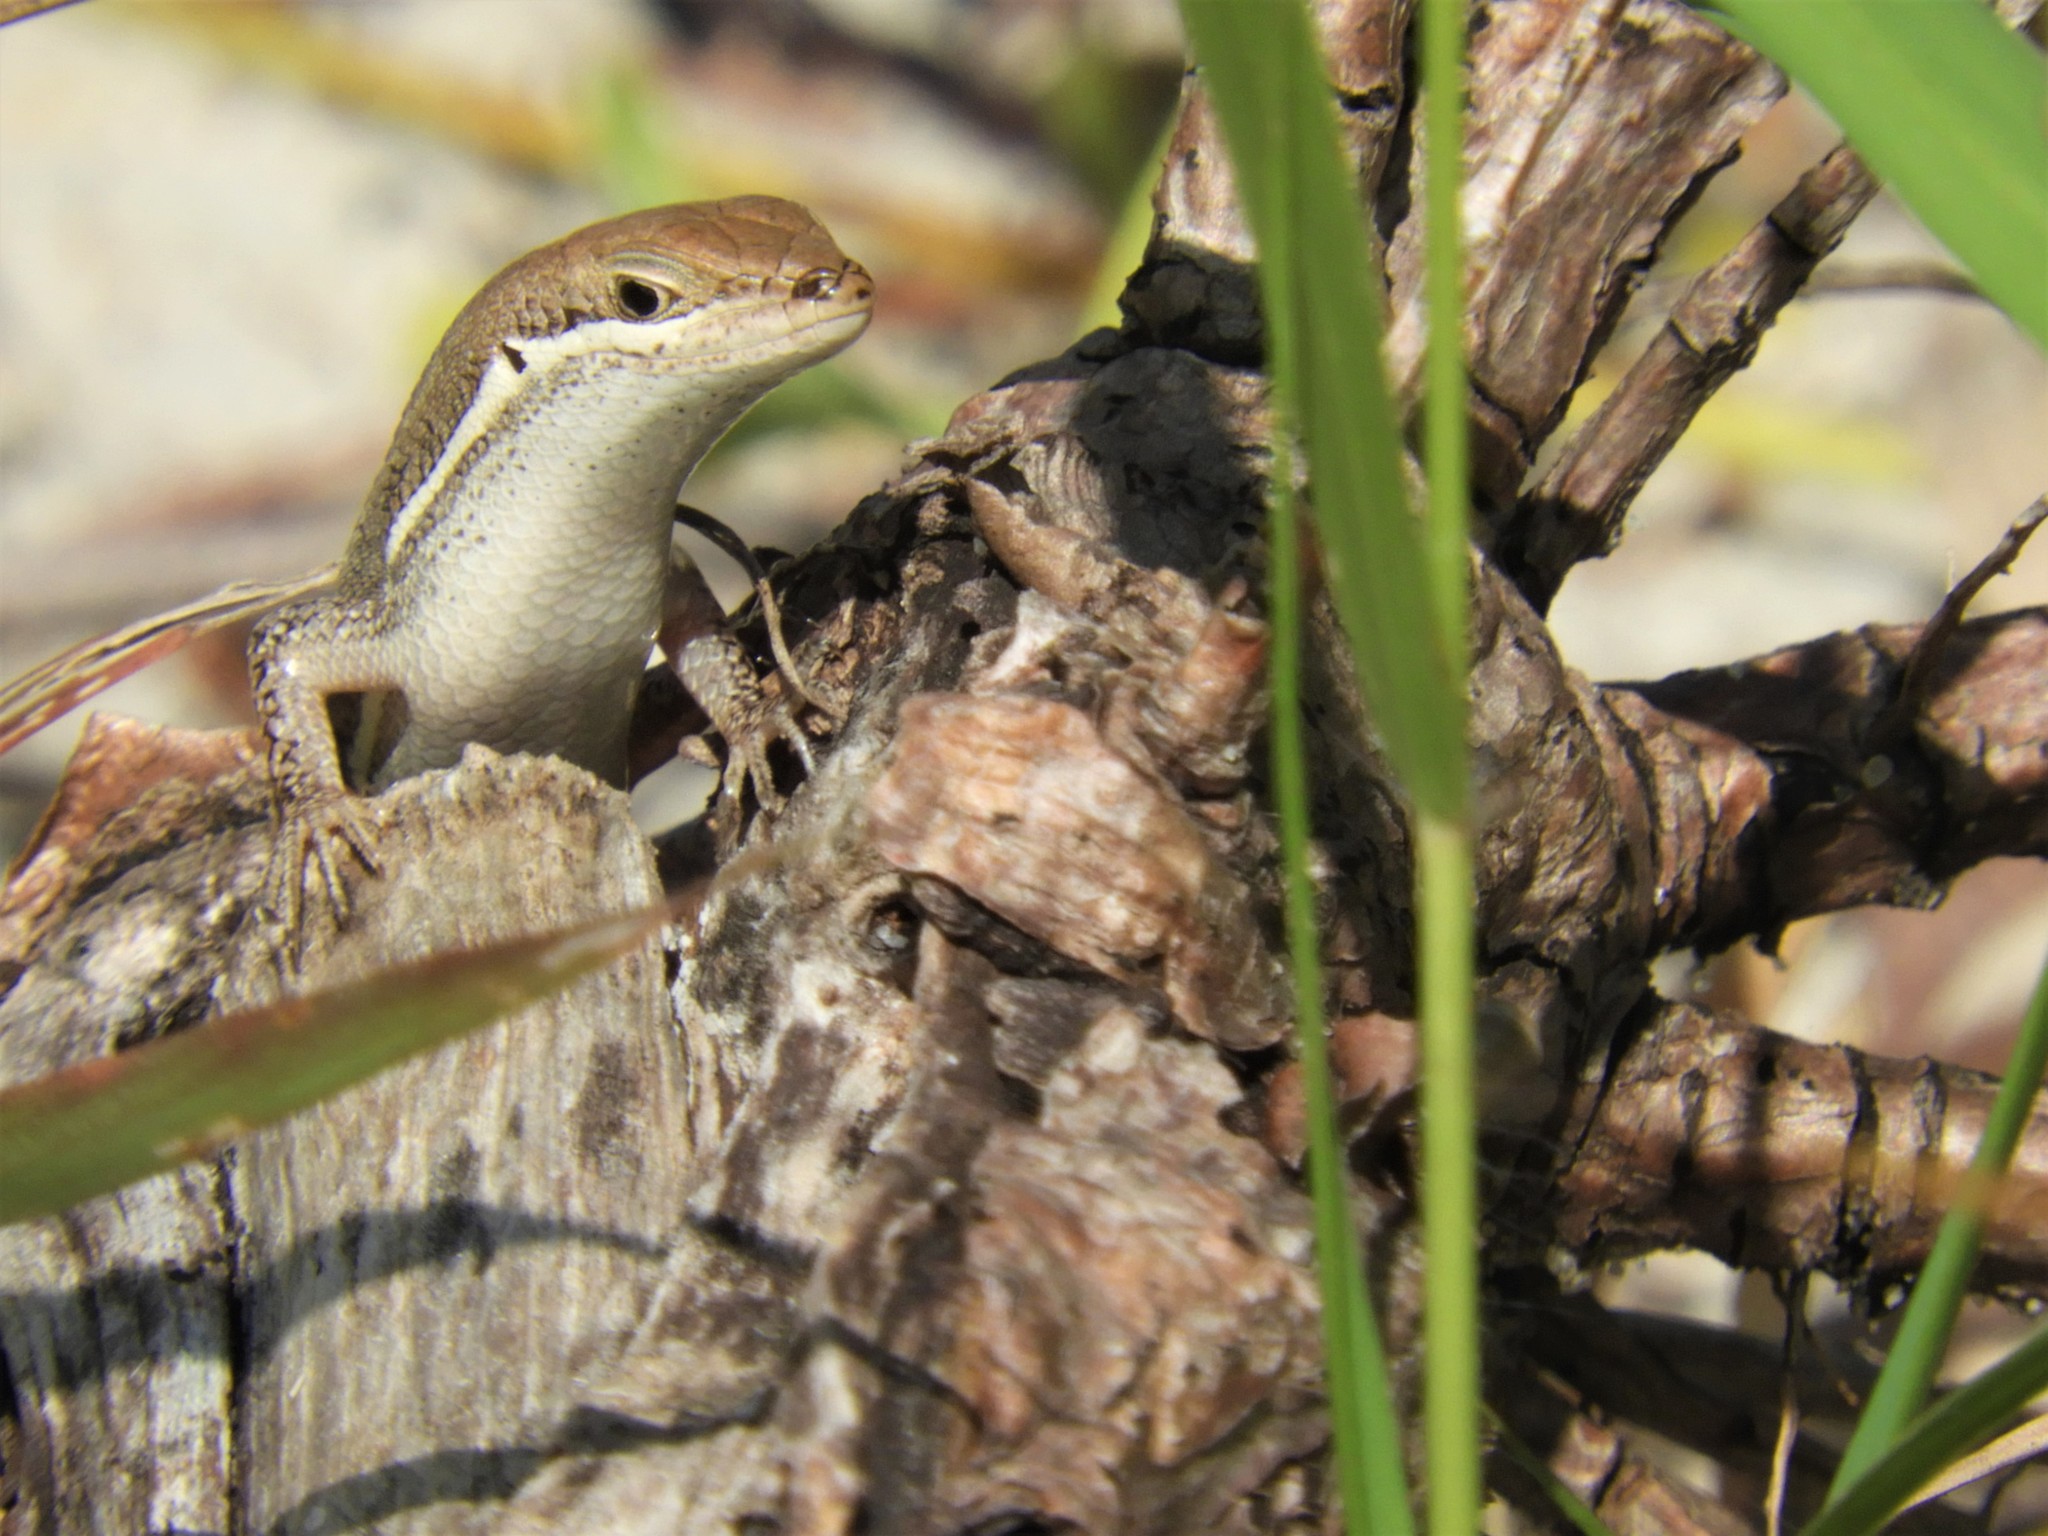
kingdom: Animalia
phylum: Chordata
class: Squamata
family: Scincidae
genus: Trachylepis
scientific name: Trachylepis varia
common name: Eastern variable skink
